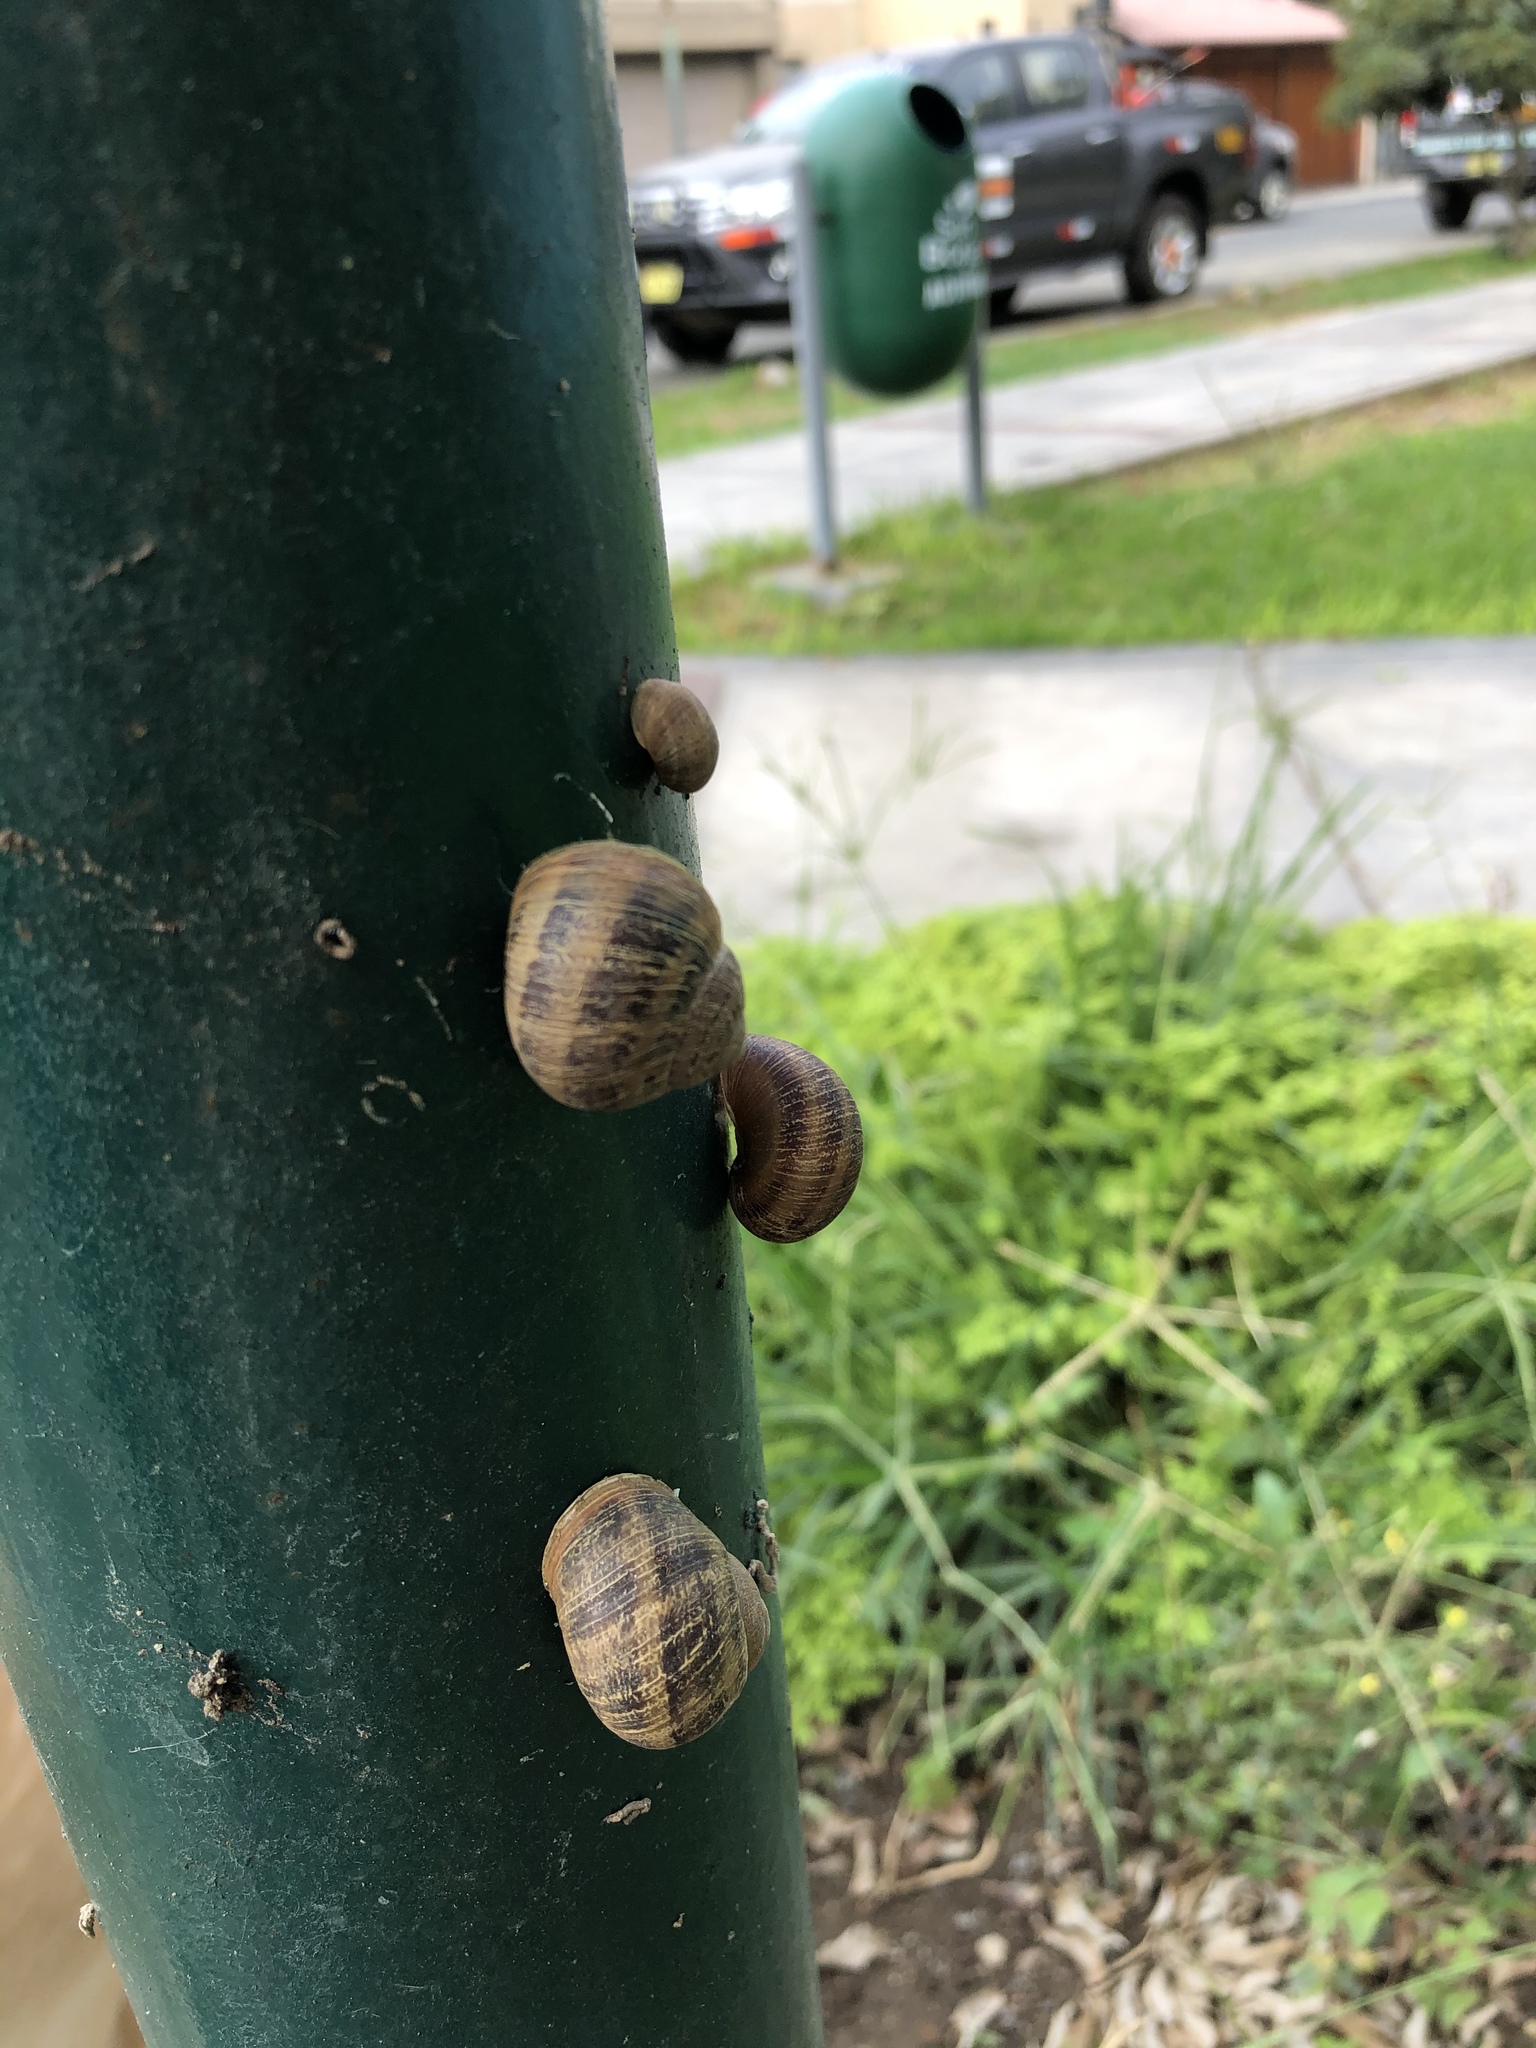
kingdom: Animalia
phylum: Mollusca
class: Gastropoda
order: Stylommatophora
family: Helicidae
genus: Cornu
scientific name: Cornu aspersum
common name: Brown garden snail
